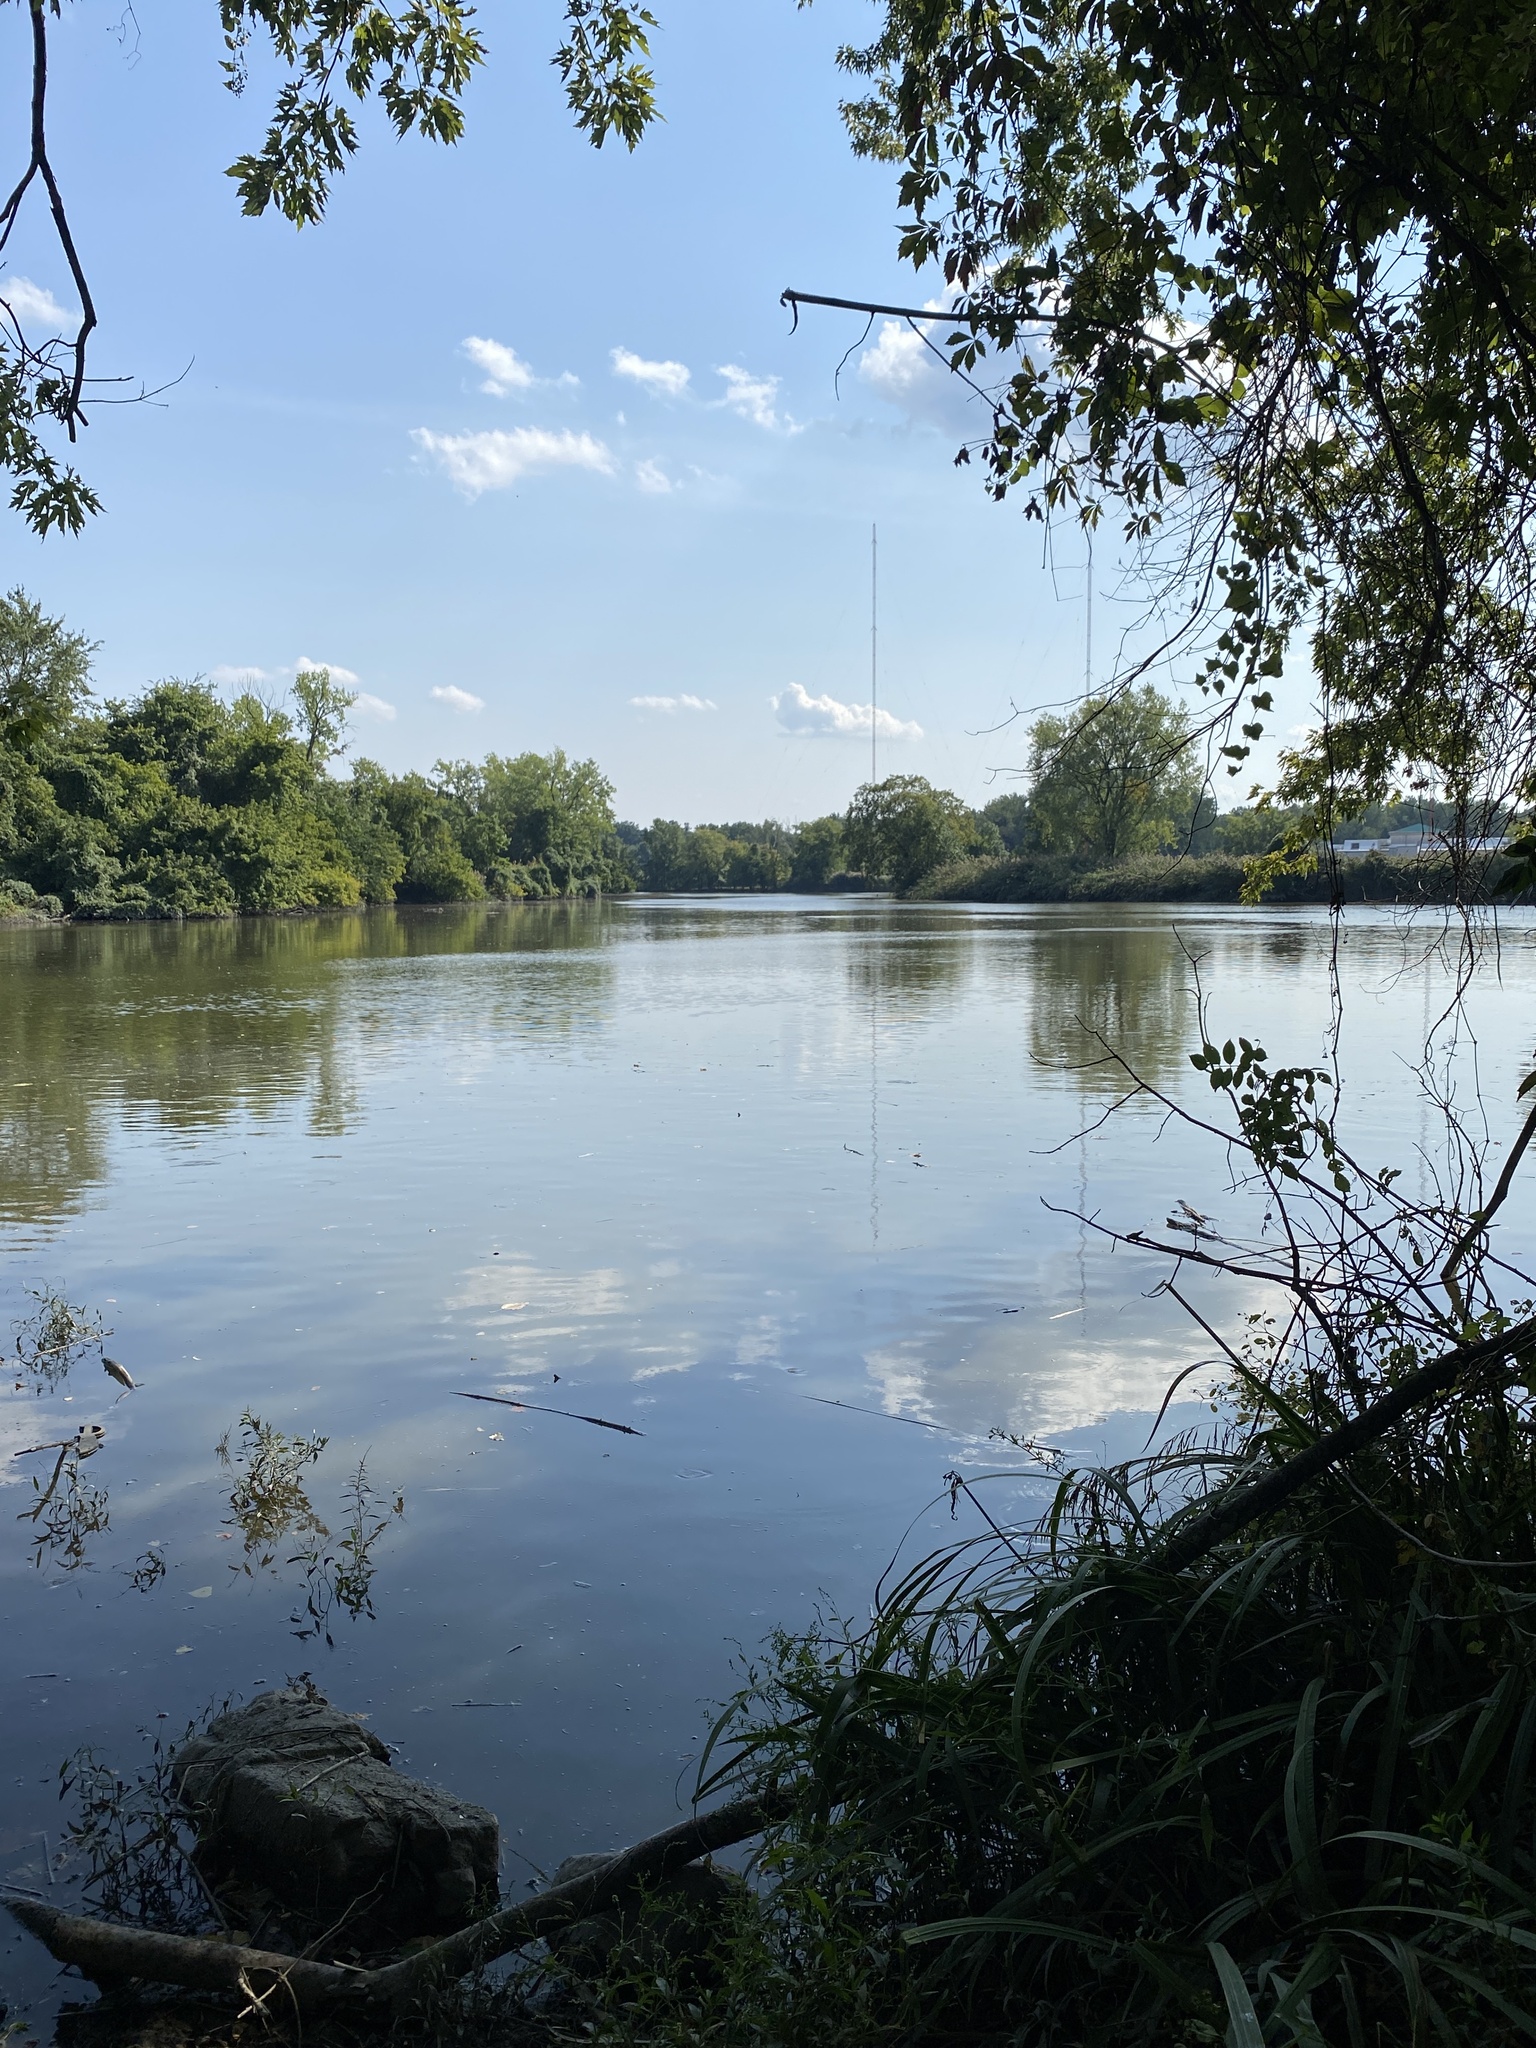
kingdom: Plantae
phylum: Tracheophyta
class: Magnoliopsida
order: Apiales
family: Apiaceae
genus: Cicuta
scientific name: Cicuta maculata
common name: Spotted cowbane
